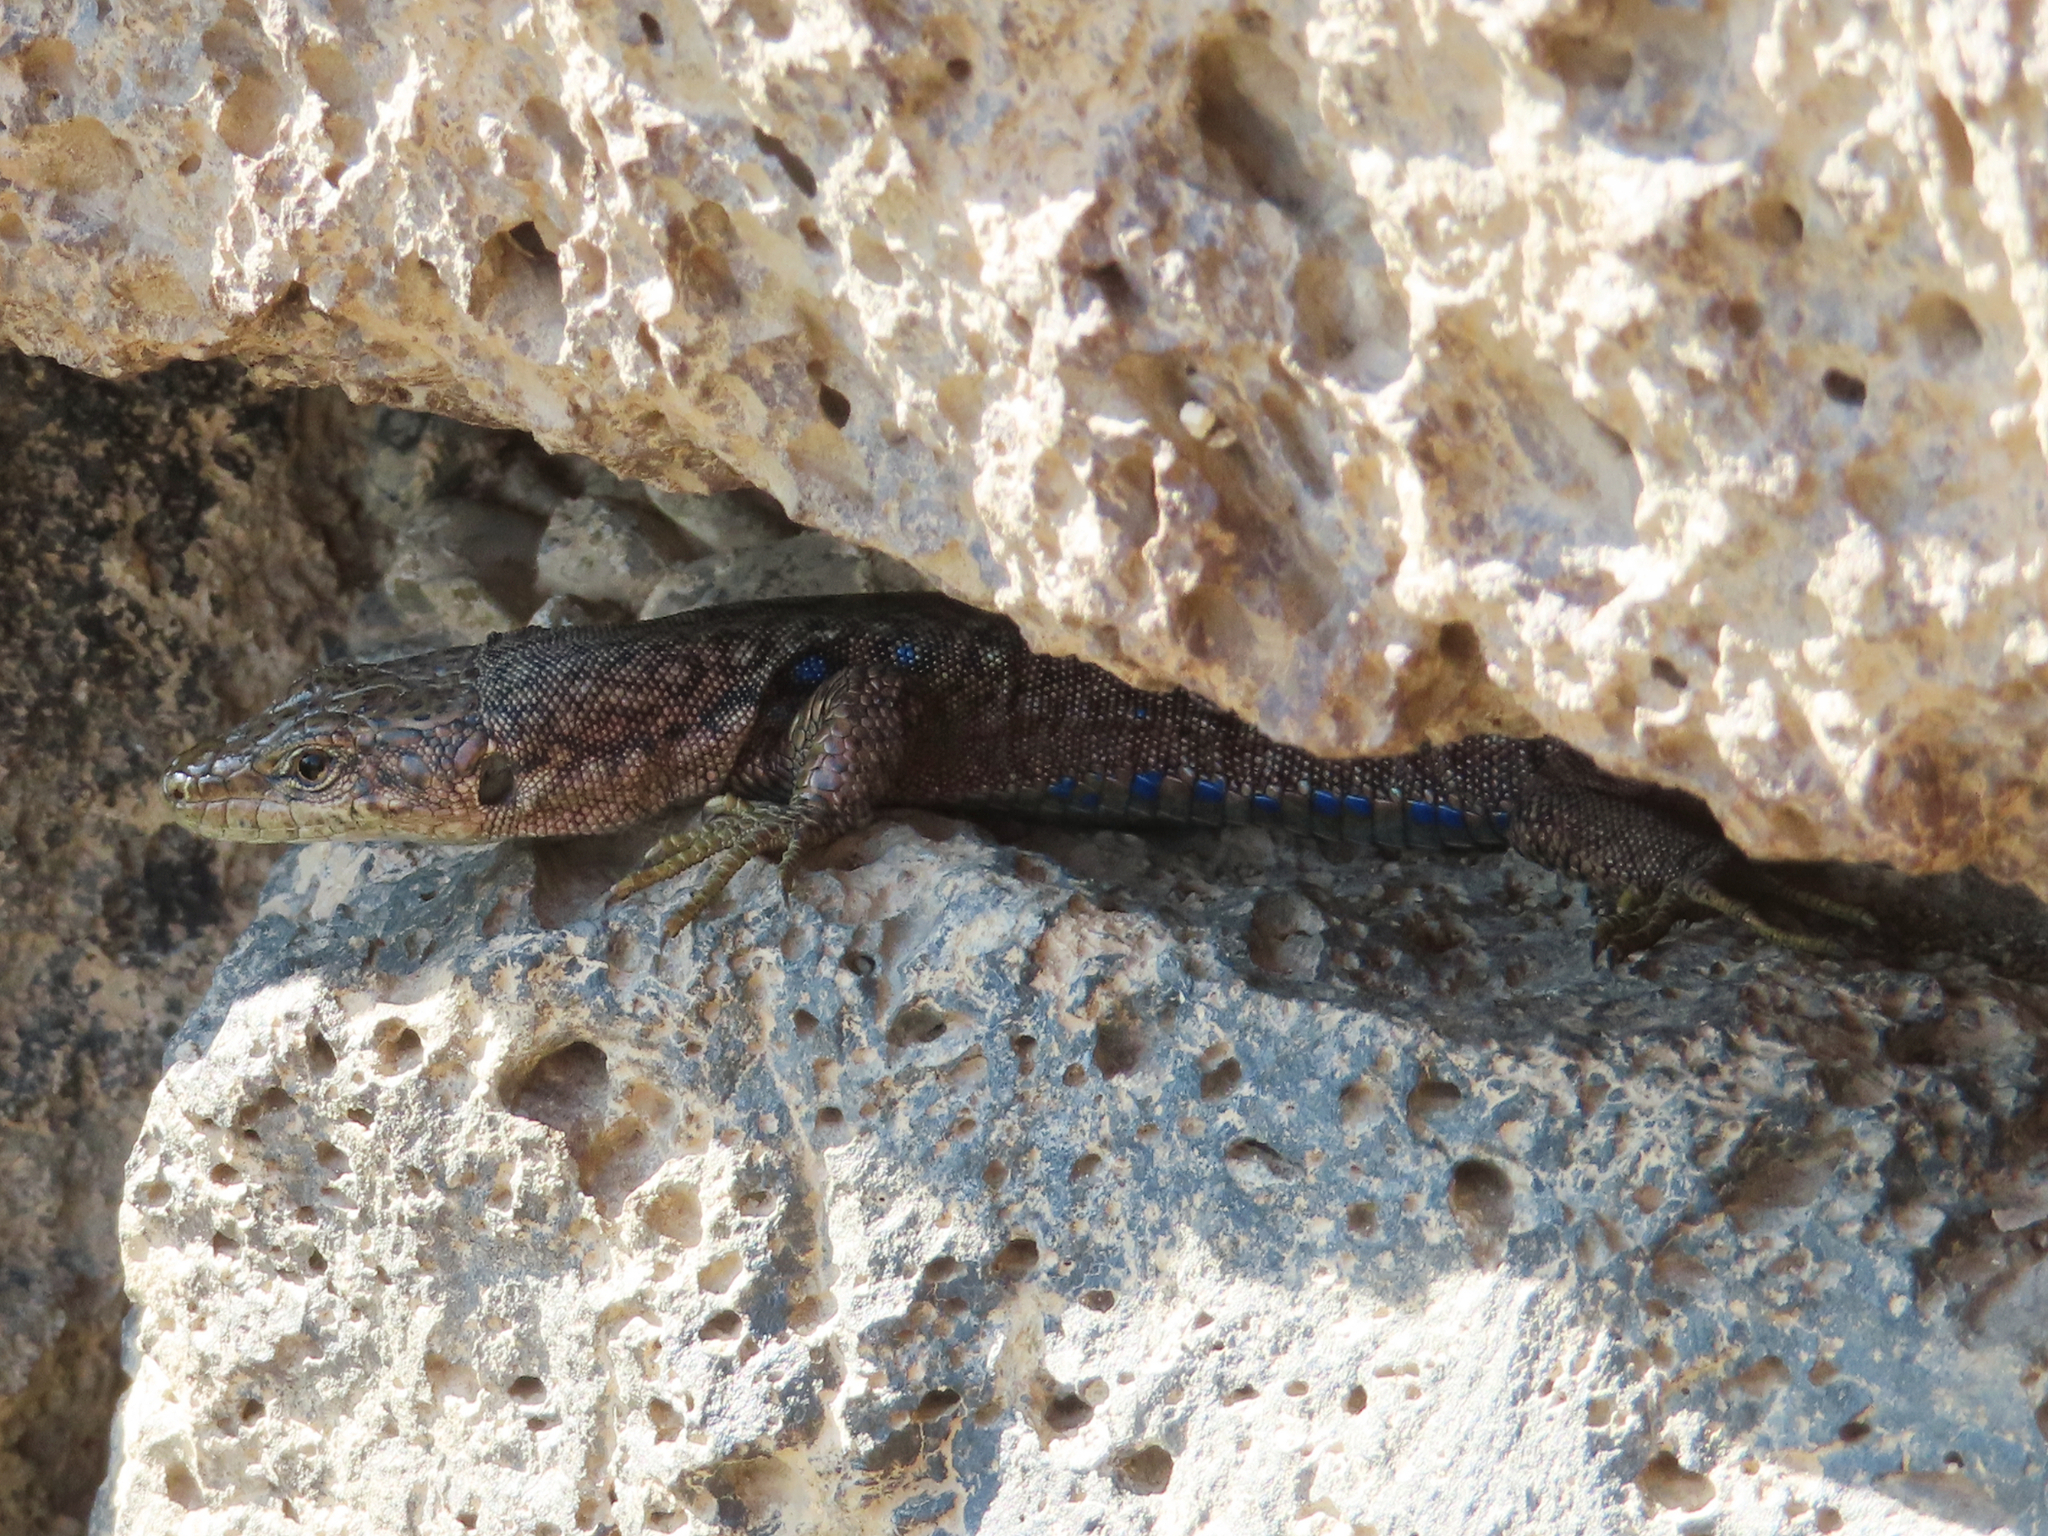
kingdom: Animalia
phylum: Chordata
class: Squamata
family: Lacertidae
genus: Darevskia
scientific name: Darevskia unisexualis
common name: Unisexual lizard
